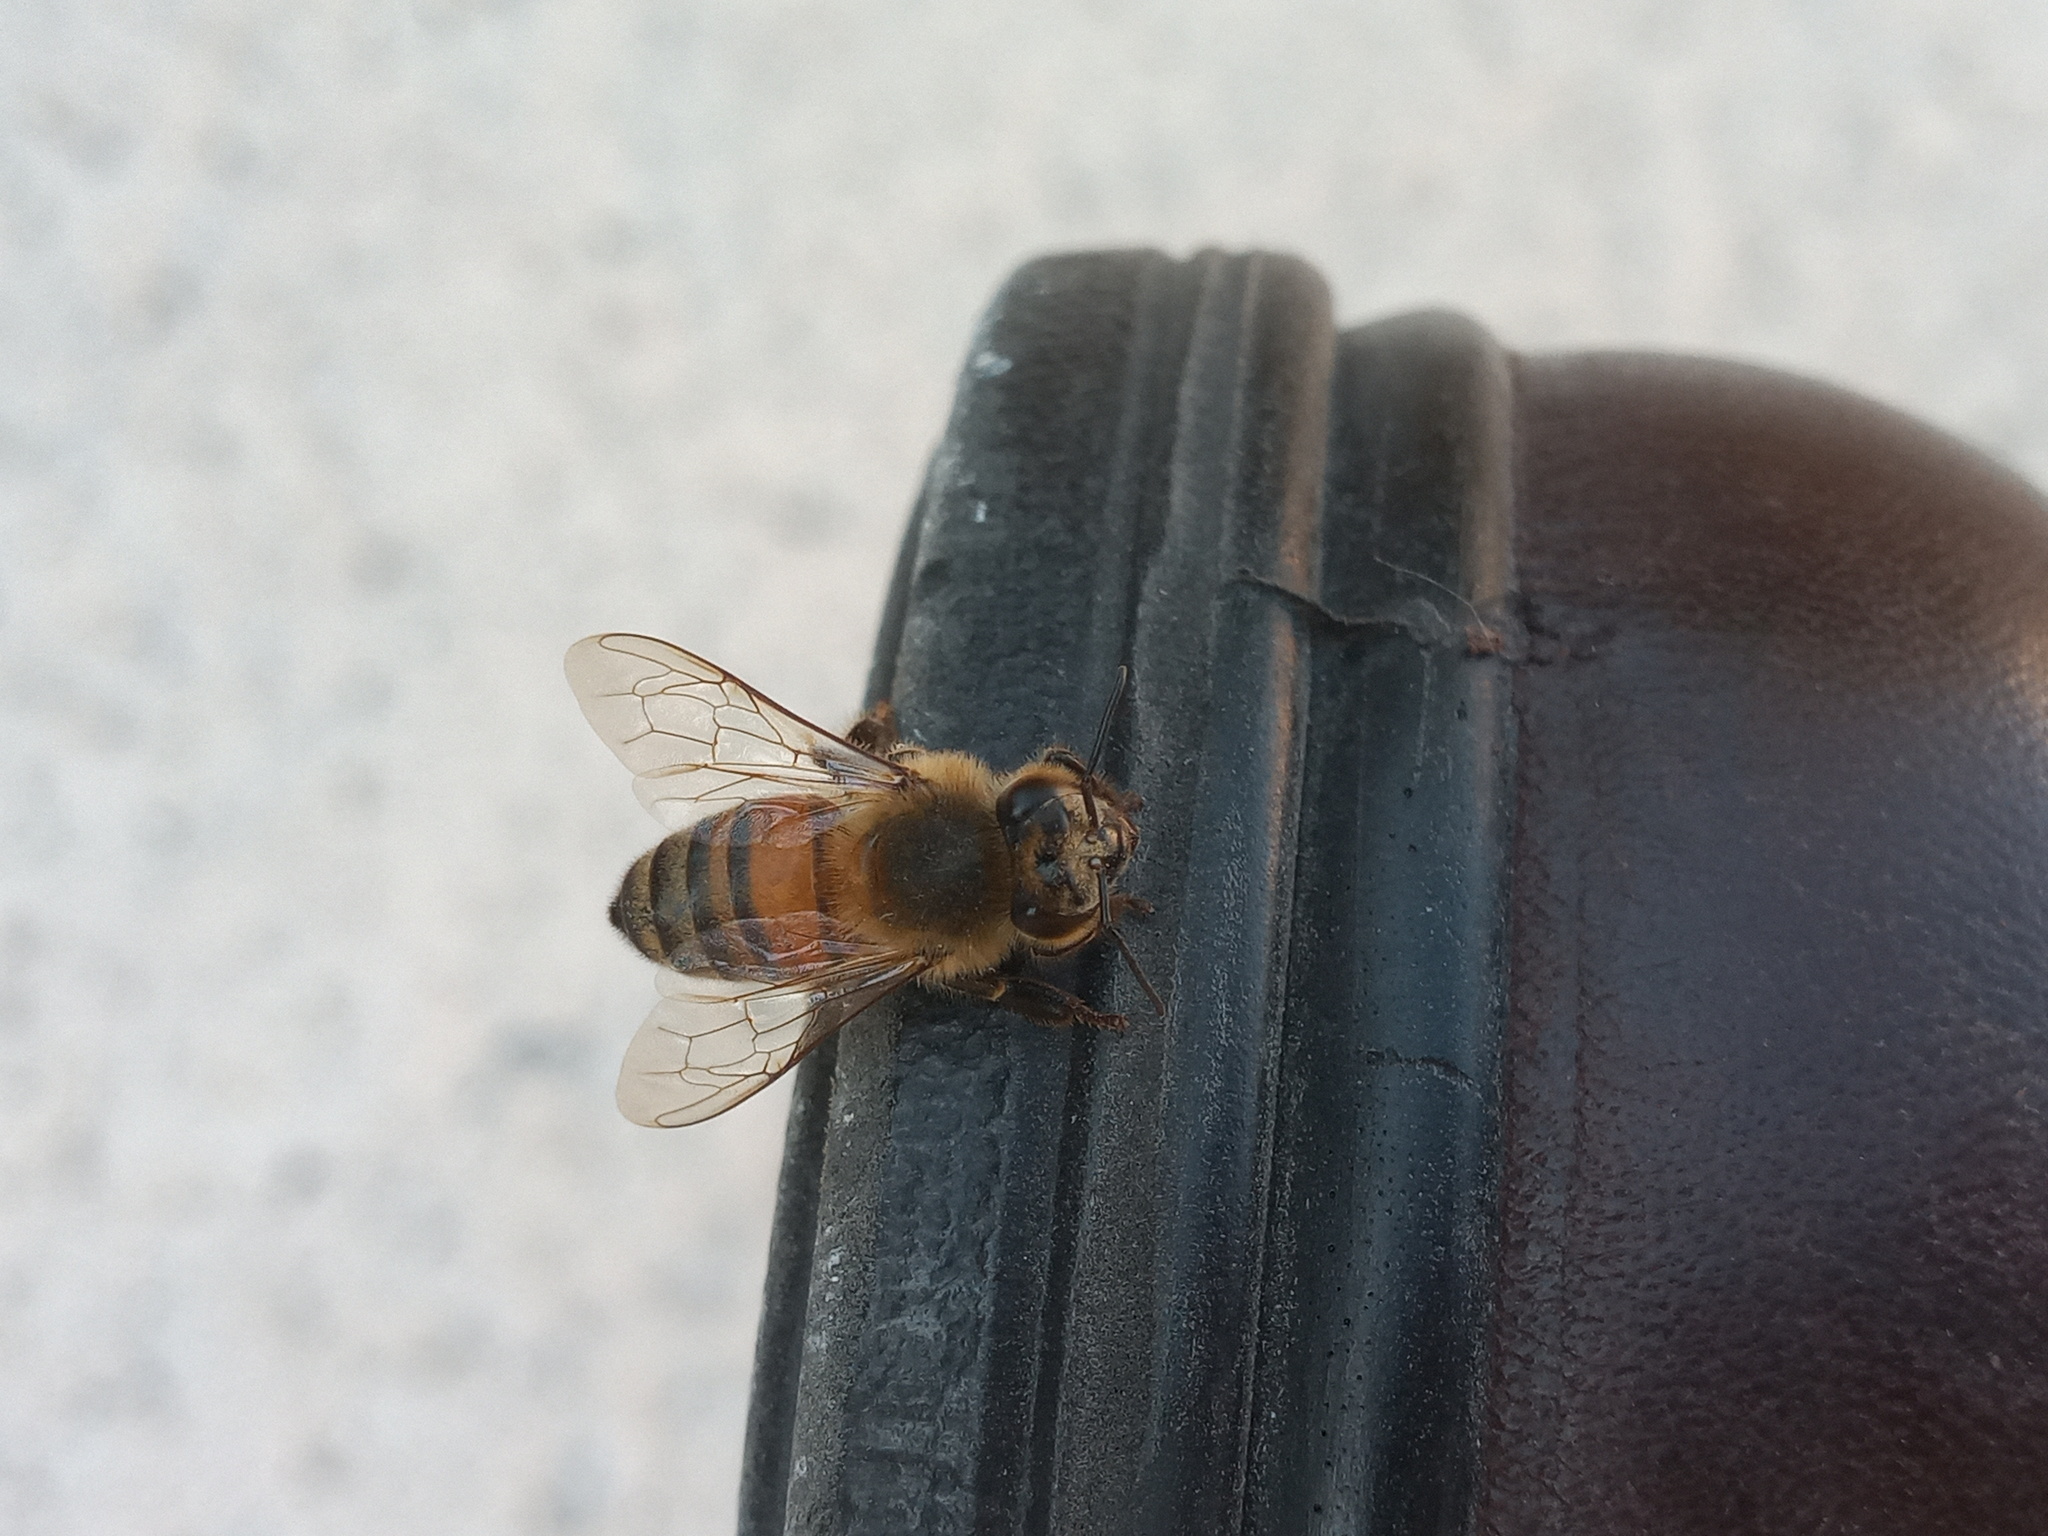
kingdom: Animalia
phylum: Arthropoda
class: Insecta
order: Hymenoptera
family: Apidae
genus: Apis
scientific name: Apis mellifera
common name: Honey bee
